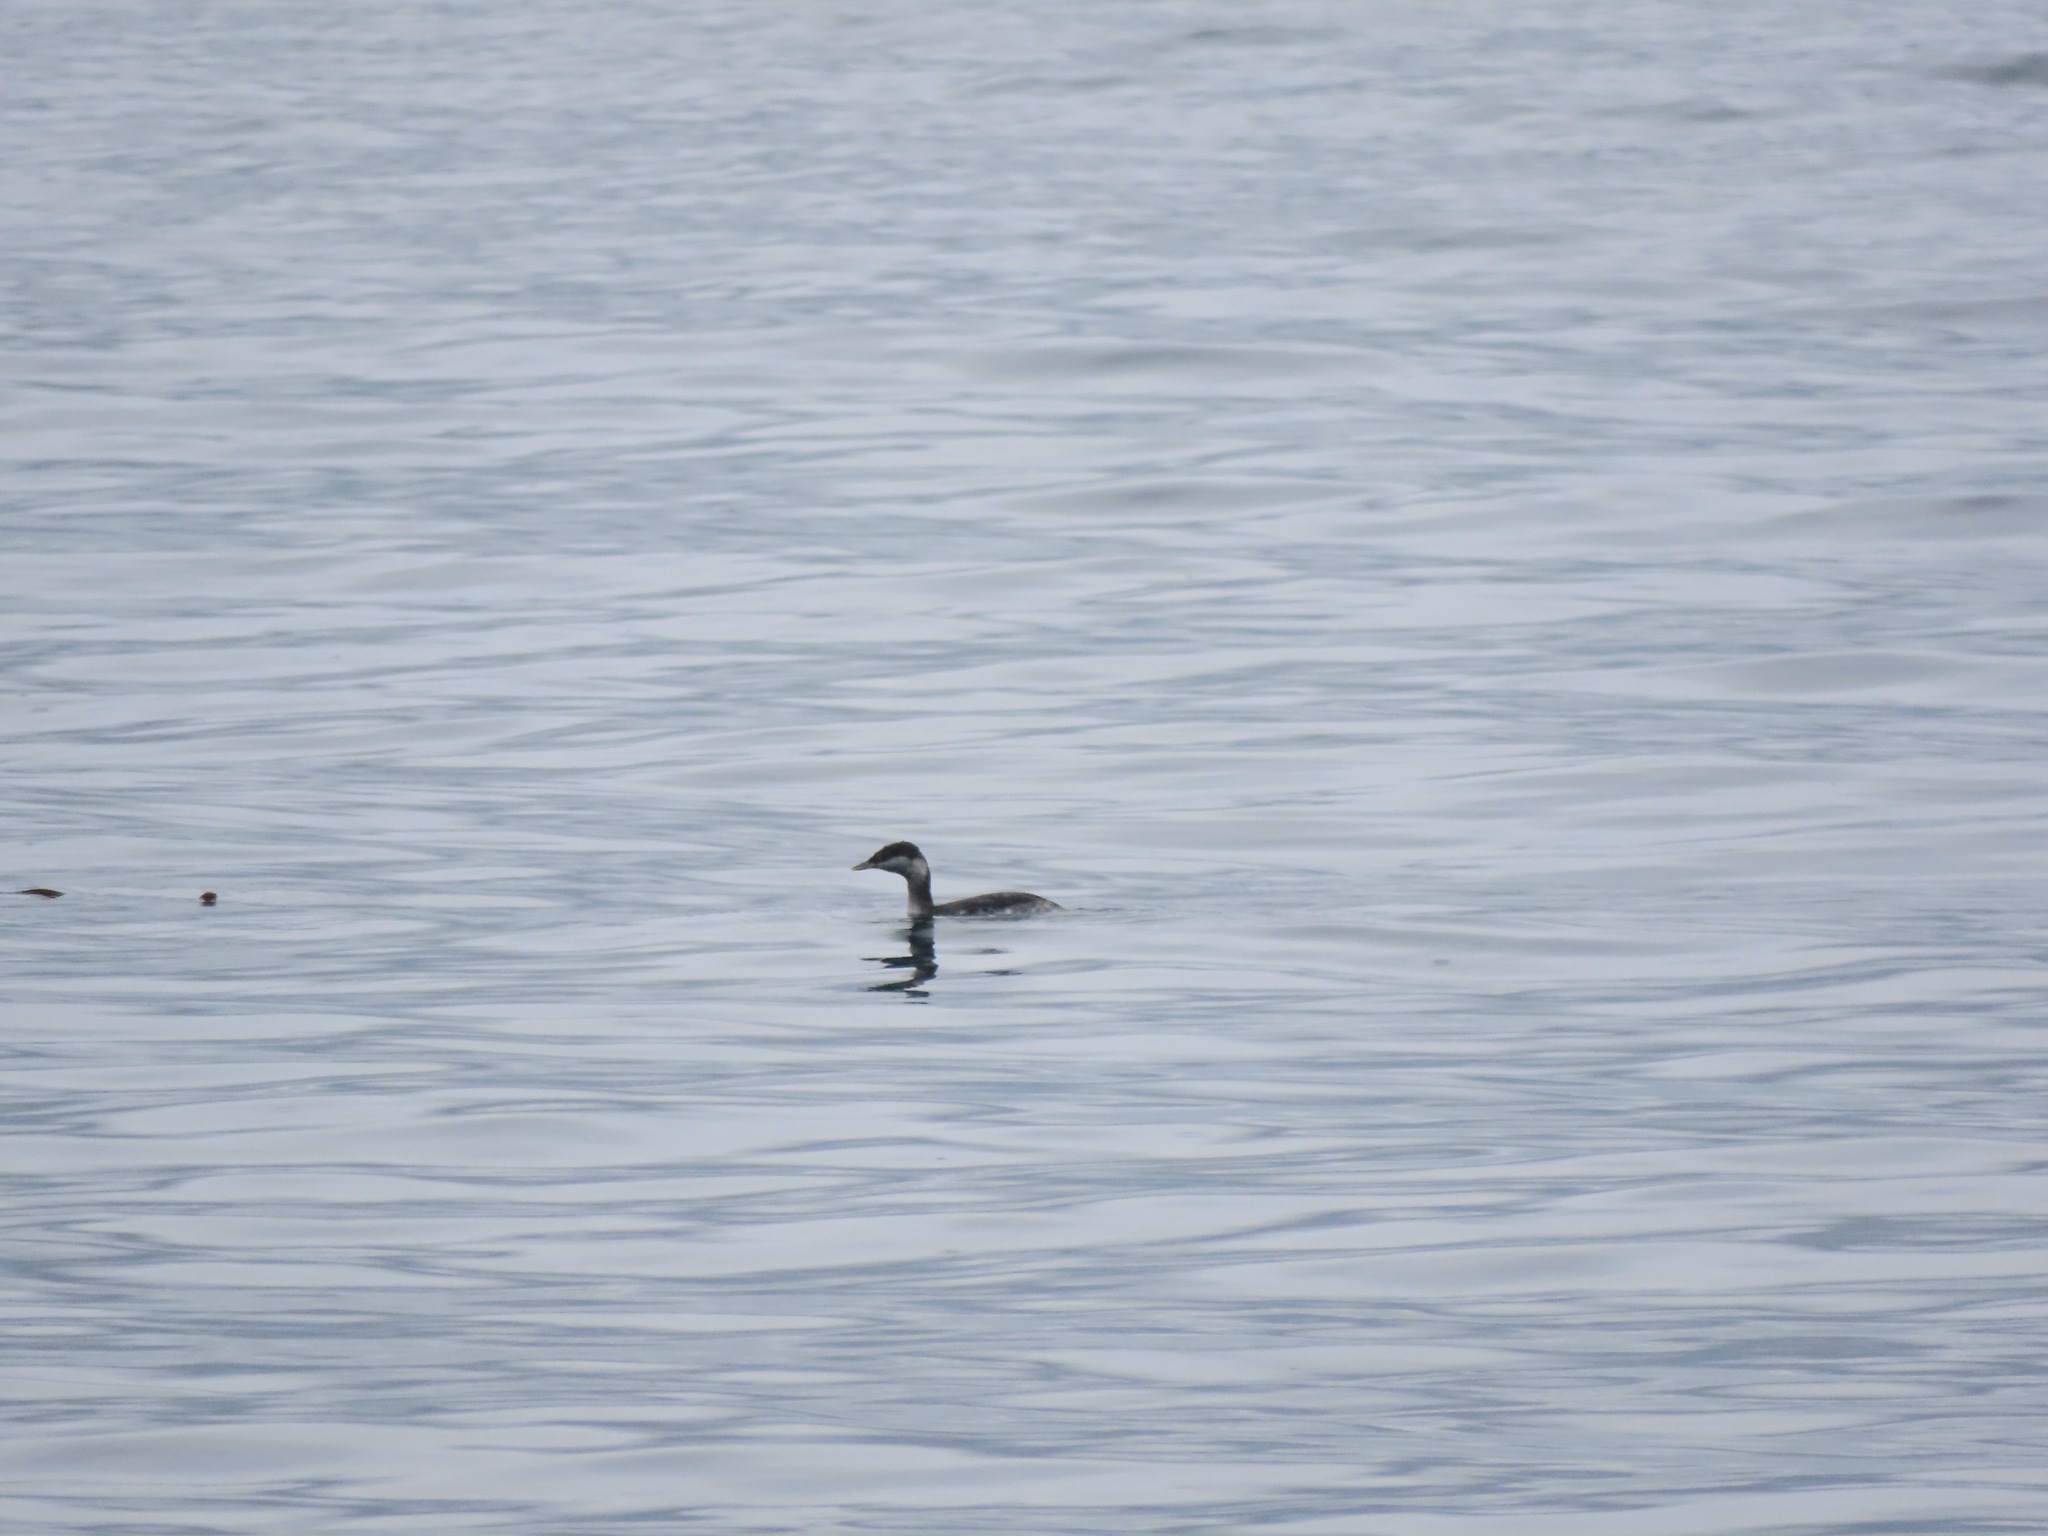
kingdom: Animalia
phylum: Chordata
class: Aves
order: Podicipediformes
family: Podicipedidae
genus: Podiceps
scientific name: Podiceps auritus
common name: Horned grebe
